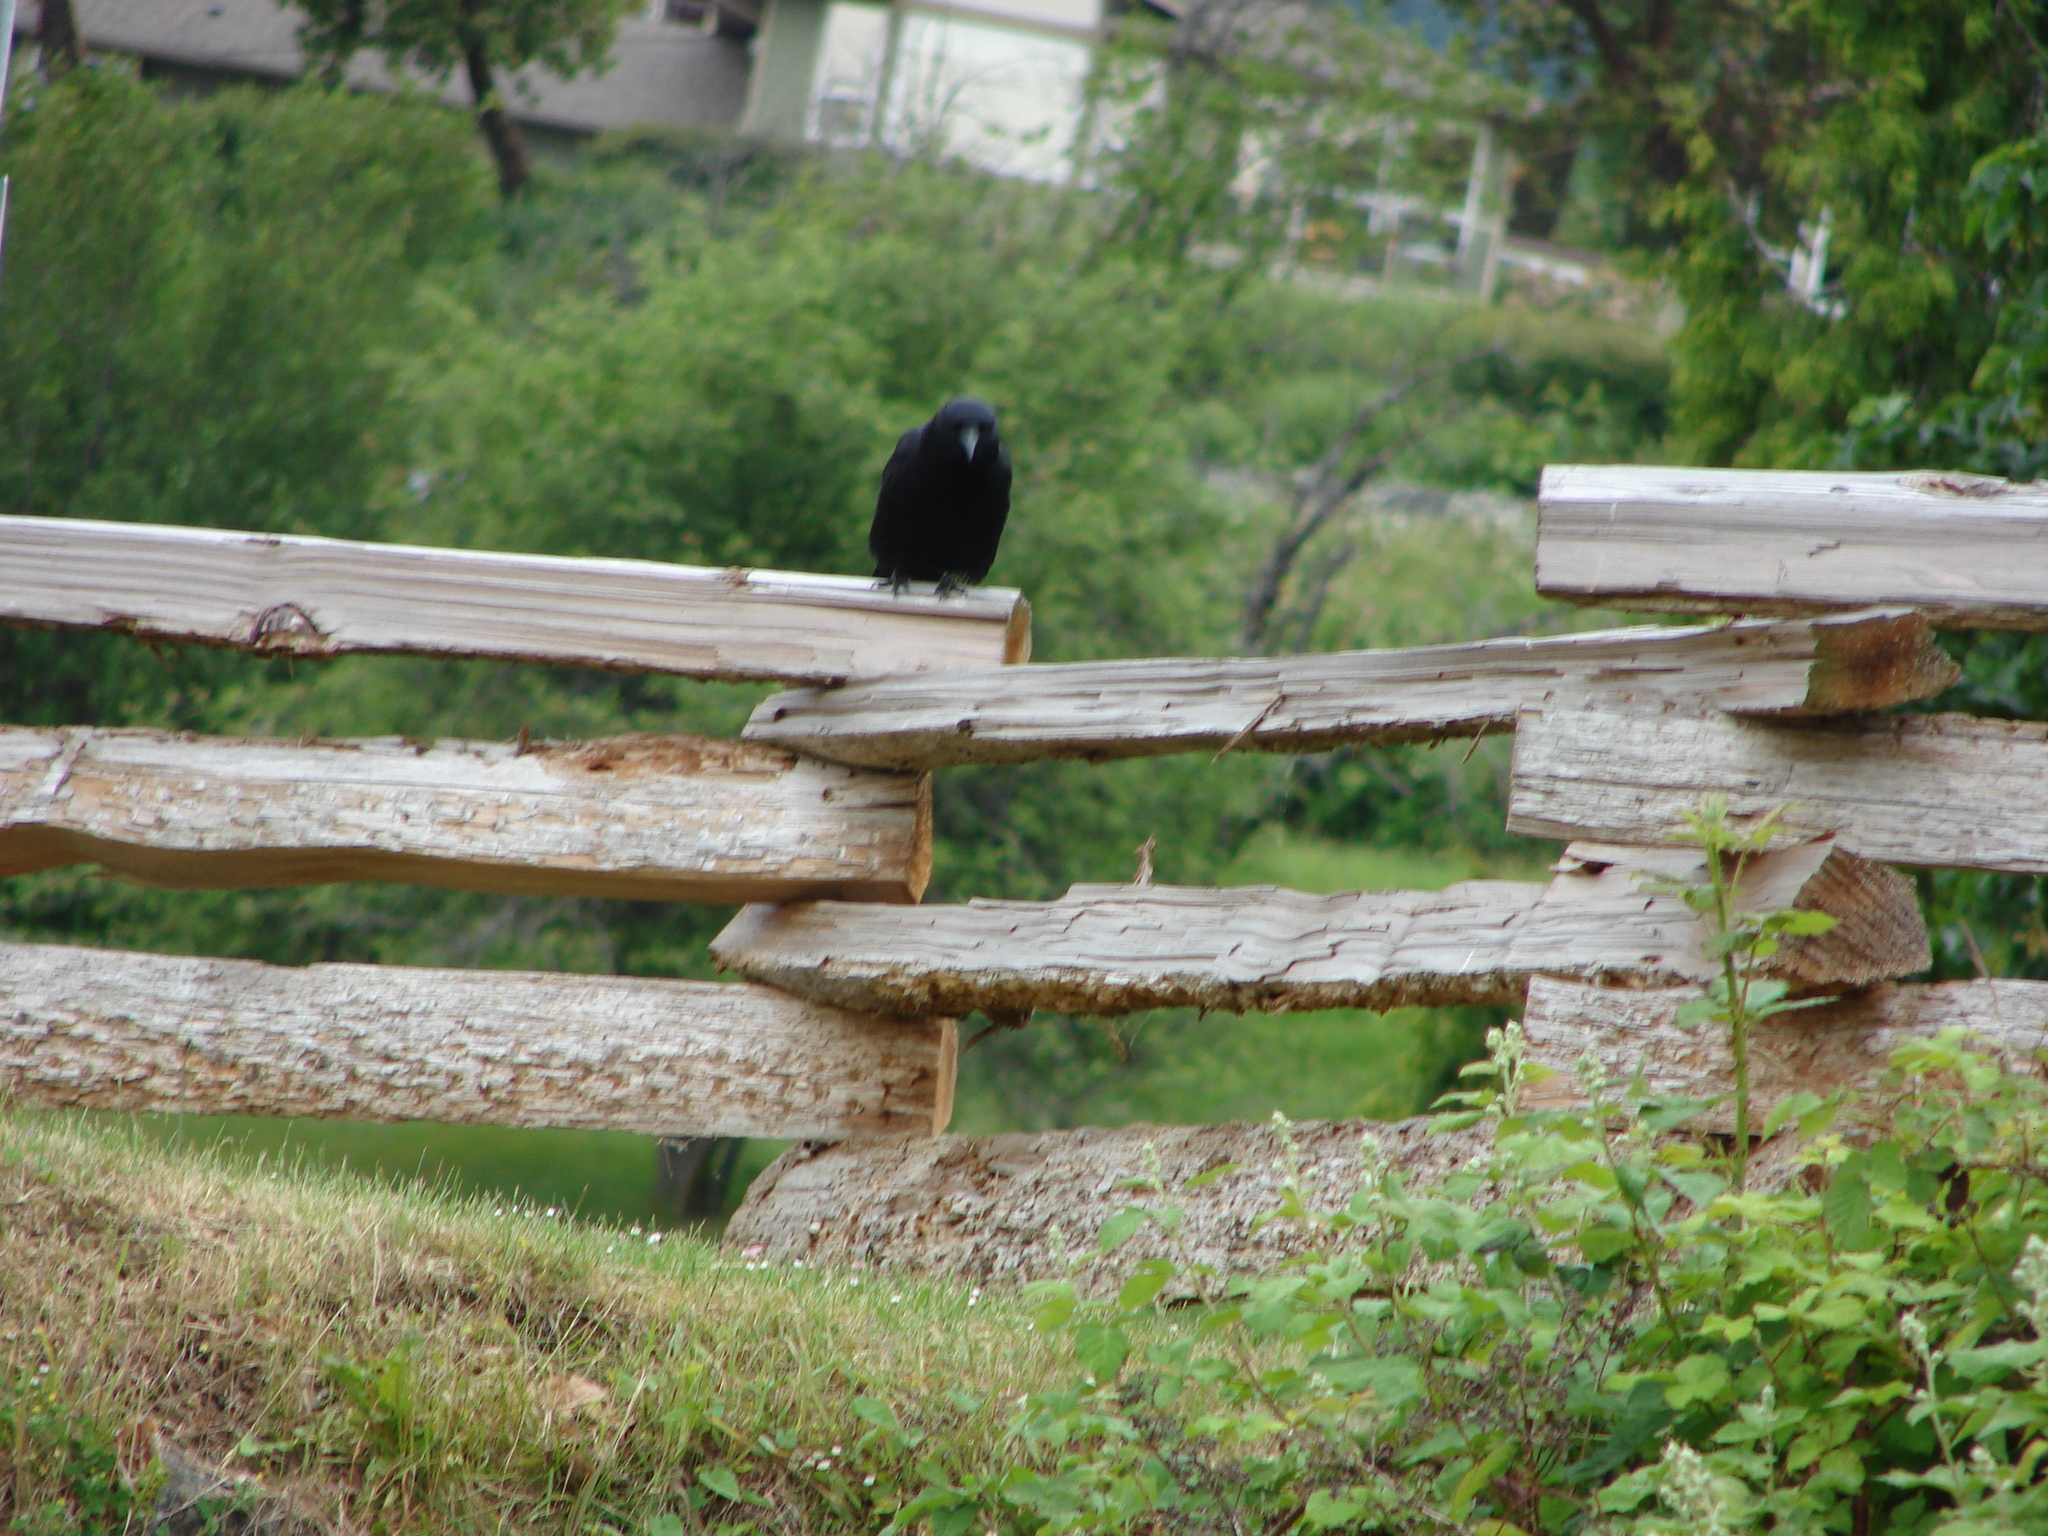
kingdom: Animalia
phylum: Chordata
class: Aves
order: Passeriformes
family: Corvidae
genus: Corvus
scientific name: Corvus brachyrhynchos
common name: American crow
